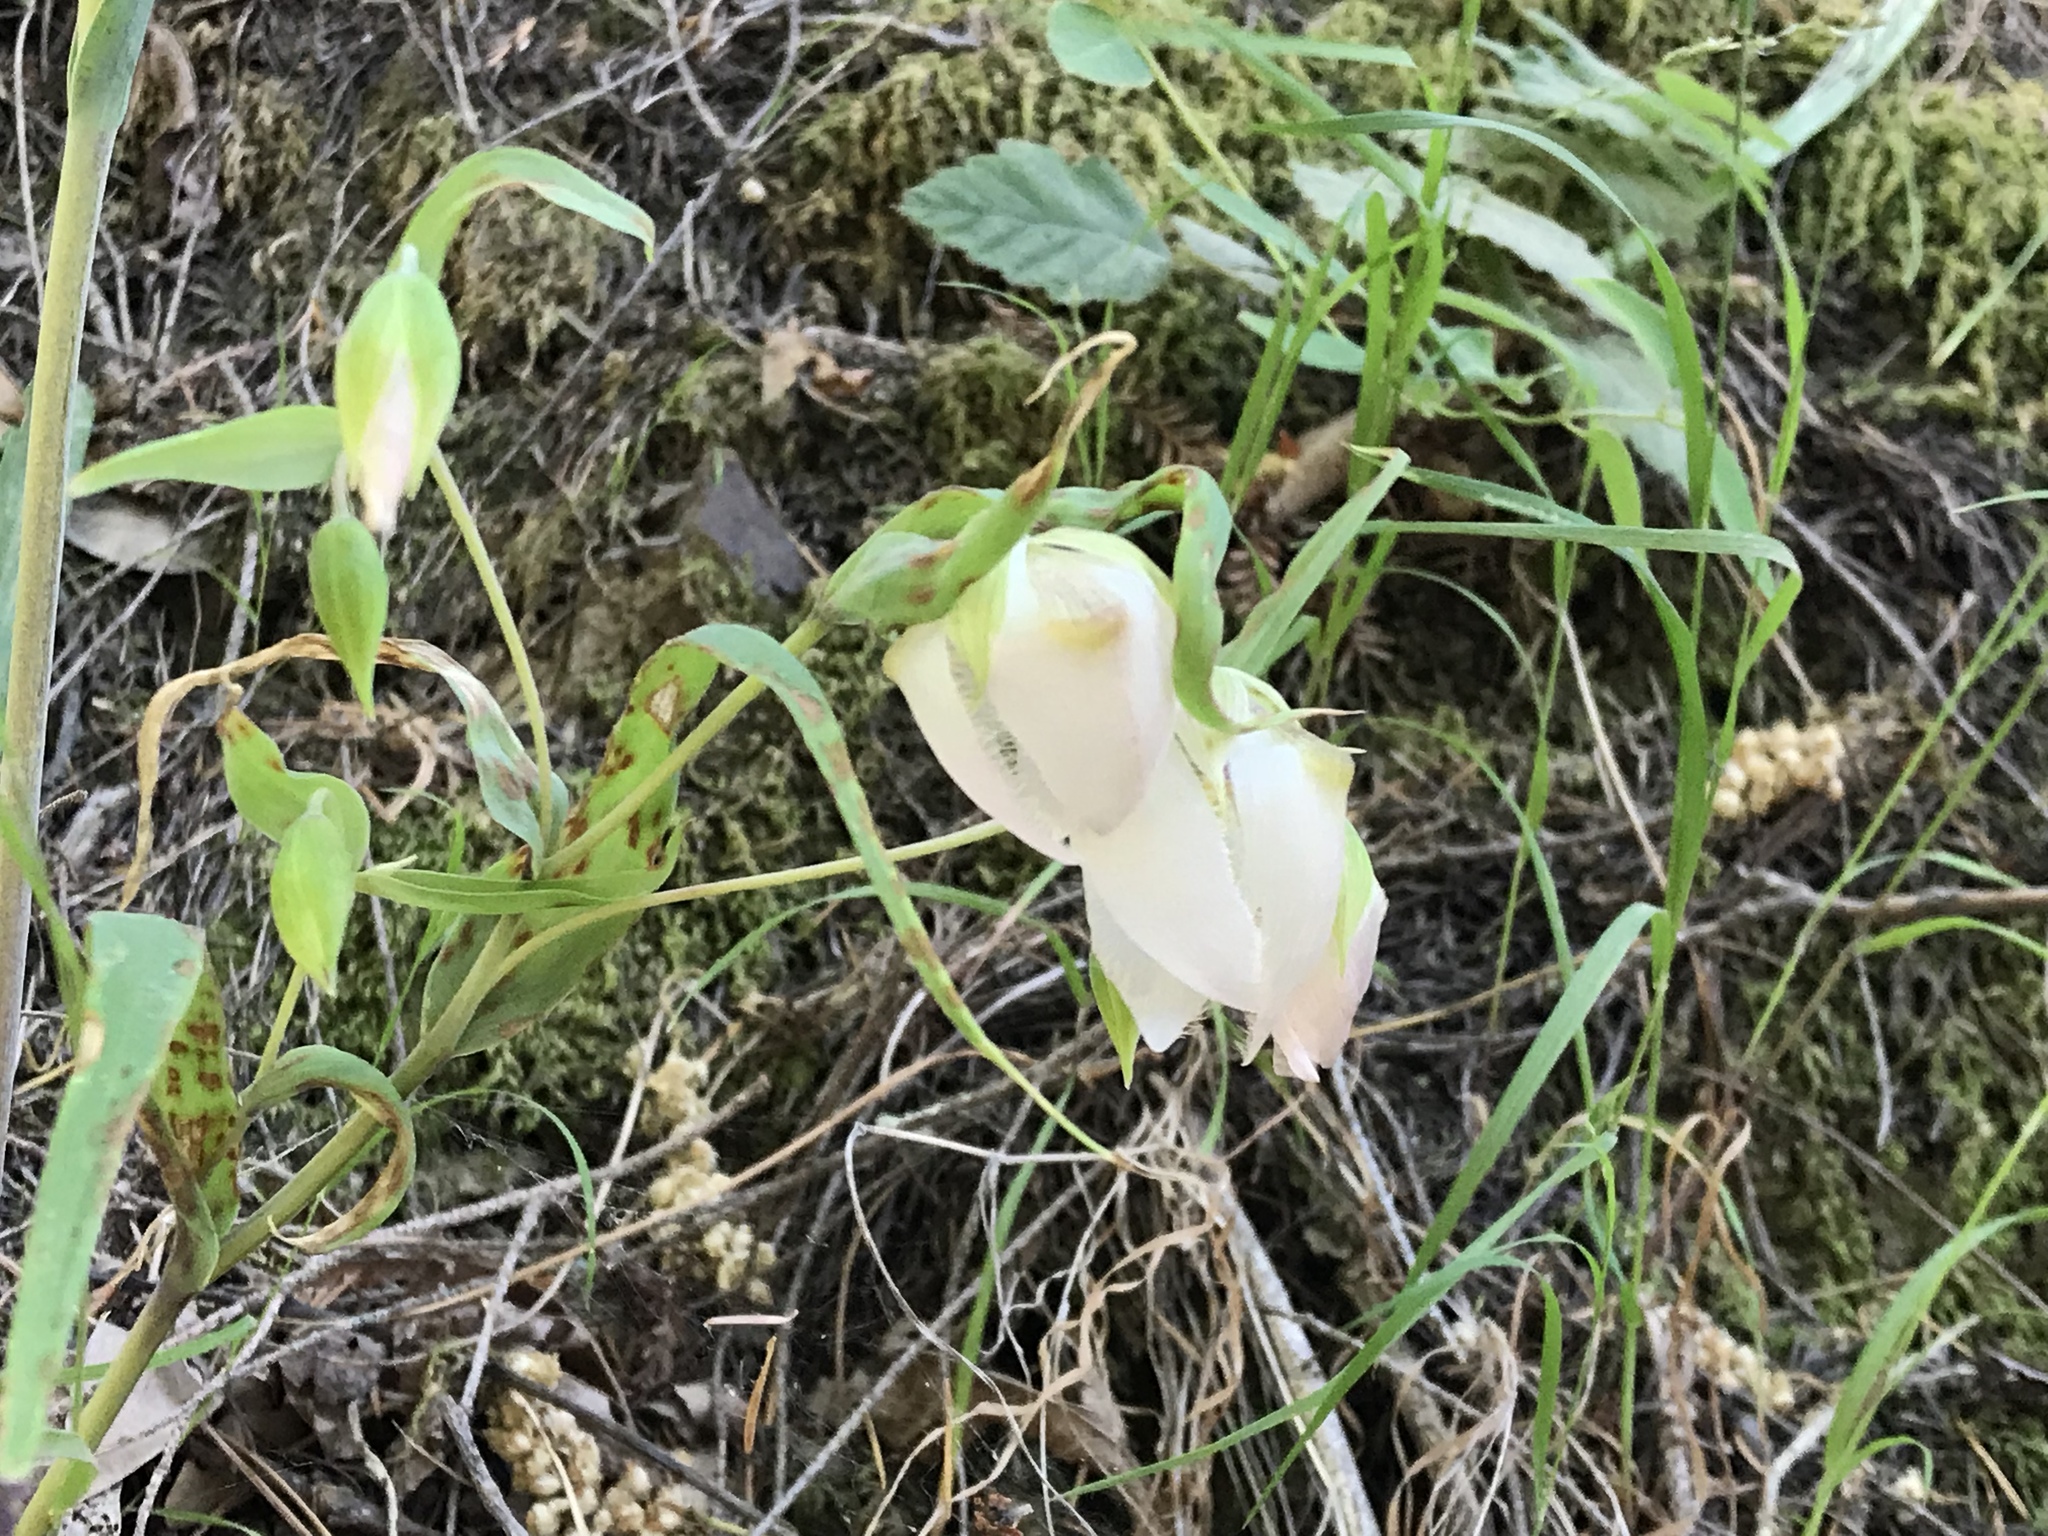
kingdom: Plantae
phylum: Tracheophyta
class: Liliopsida
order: Liliales
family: Liliaceae
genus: Calochortus
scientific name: Calochortus albus
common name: Fairy-lantern
